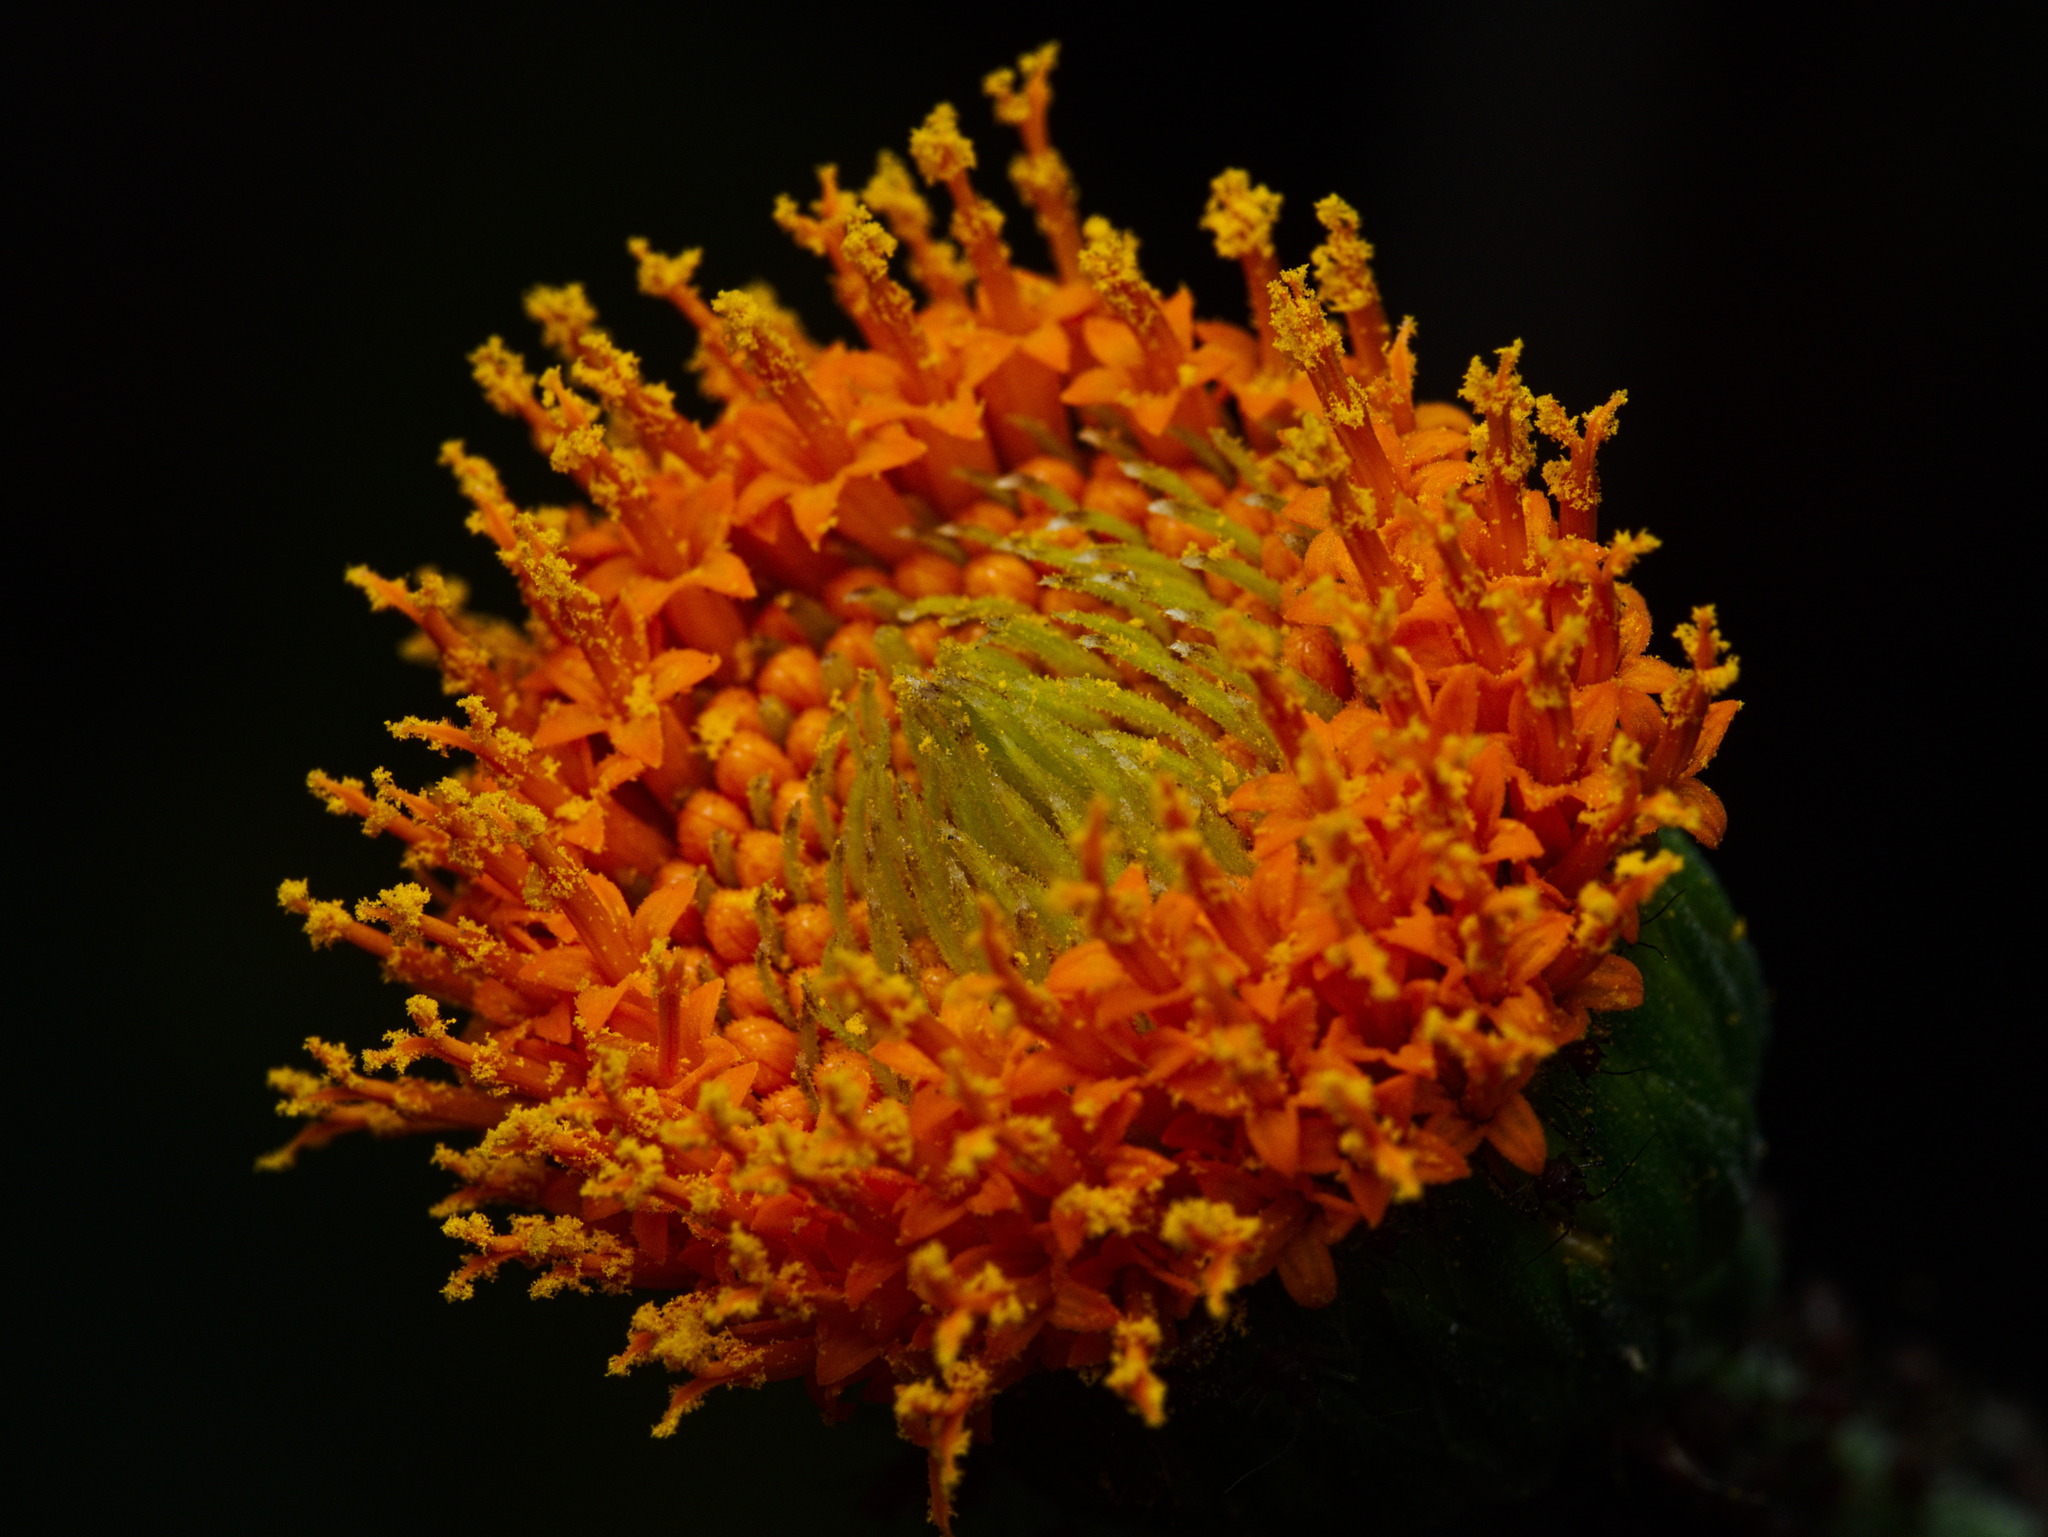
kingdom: Plantae
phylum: Tracheophyta
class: Magnoliopsida
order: Asterales
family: Asteraceae
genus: Verbesina
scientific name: Verbesina crocata
